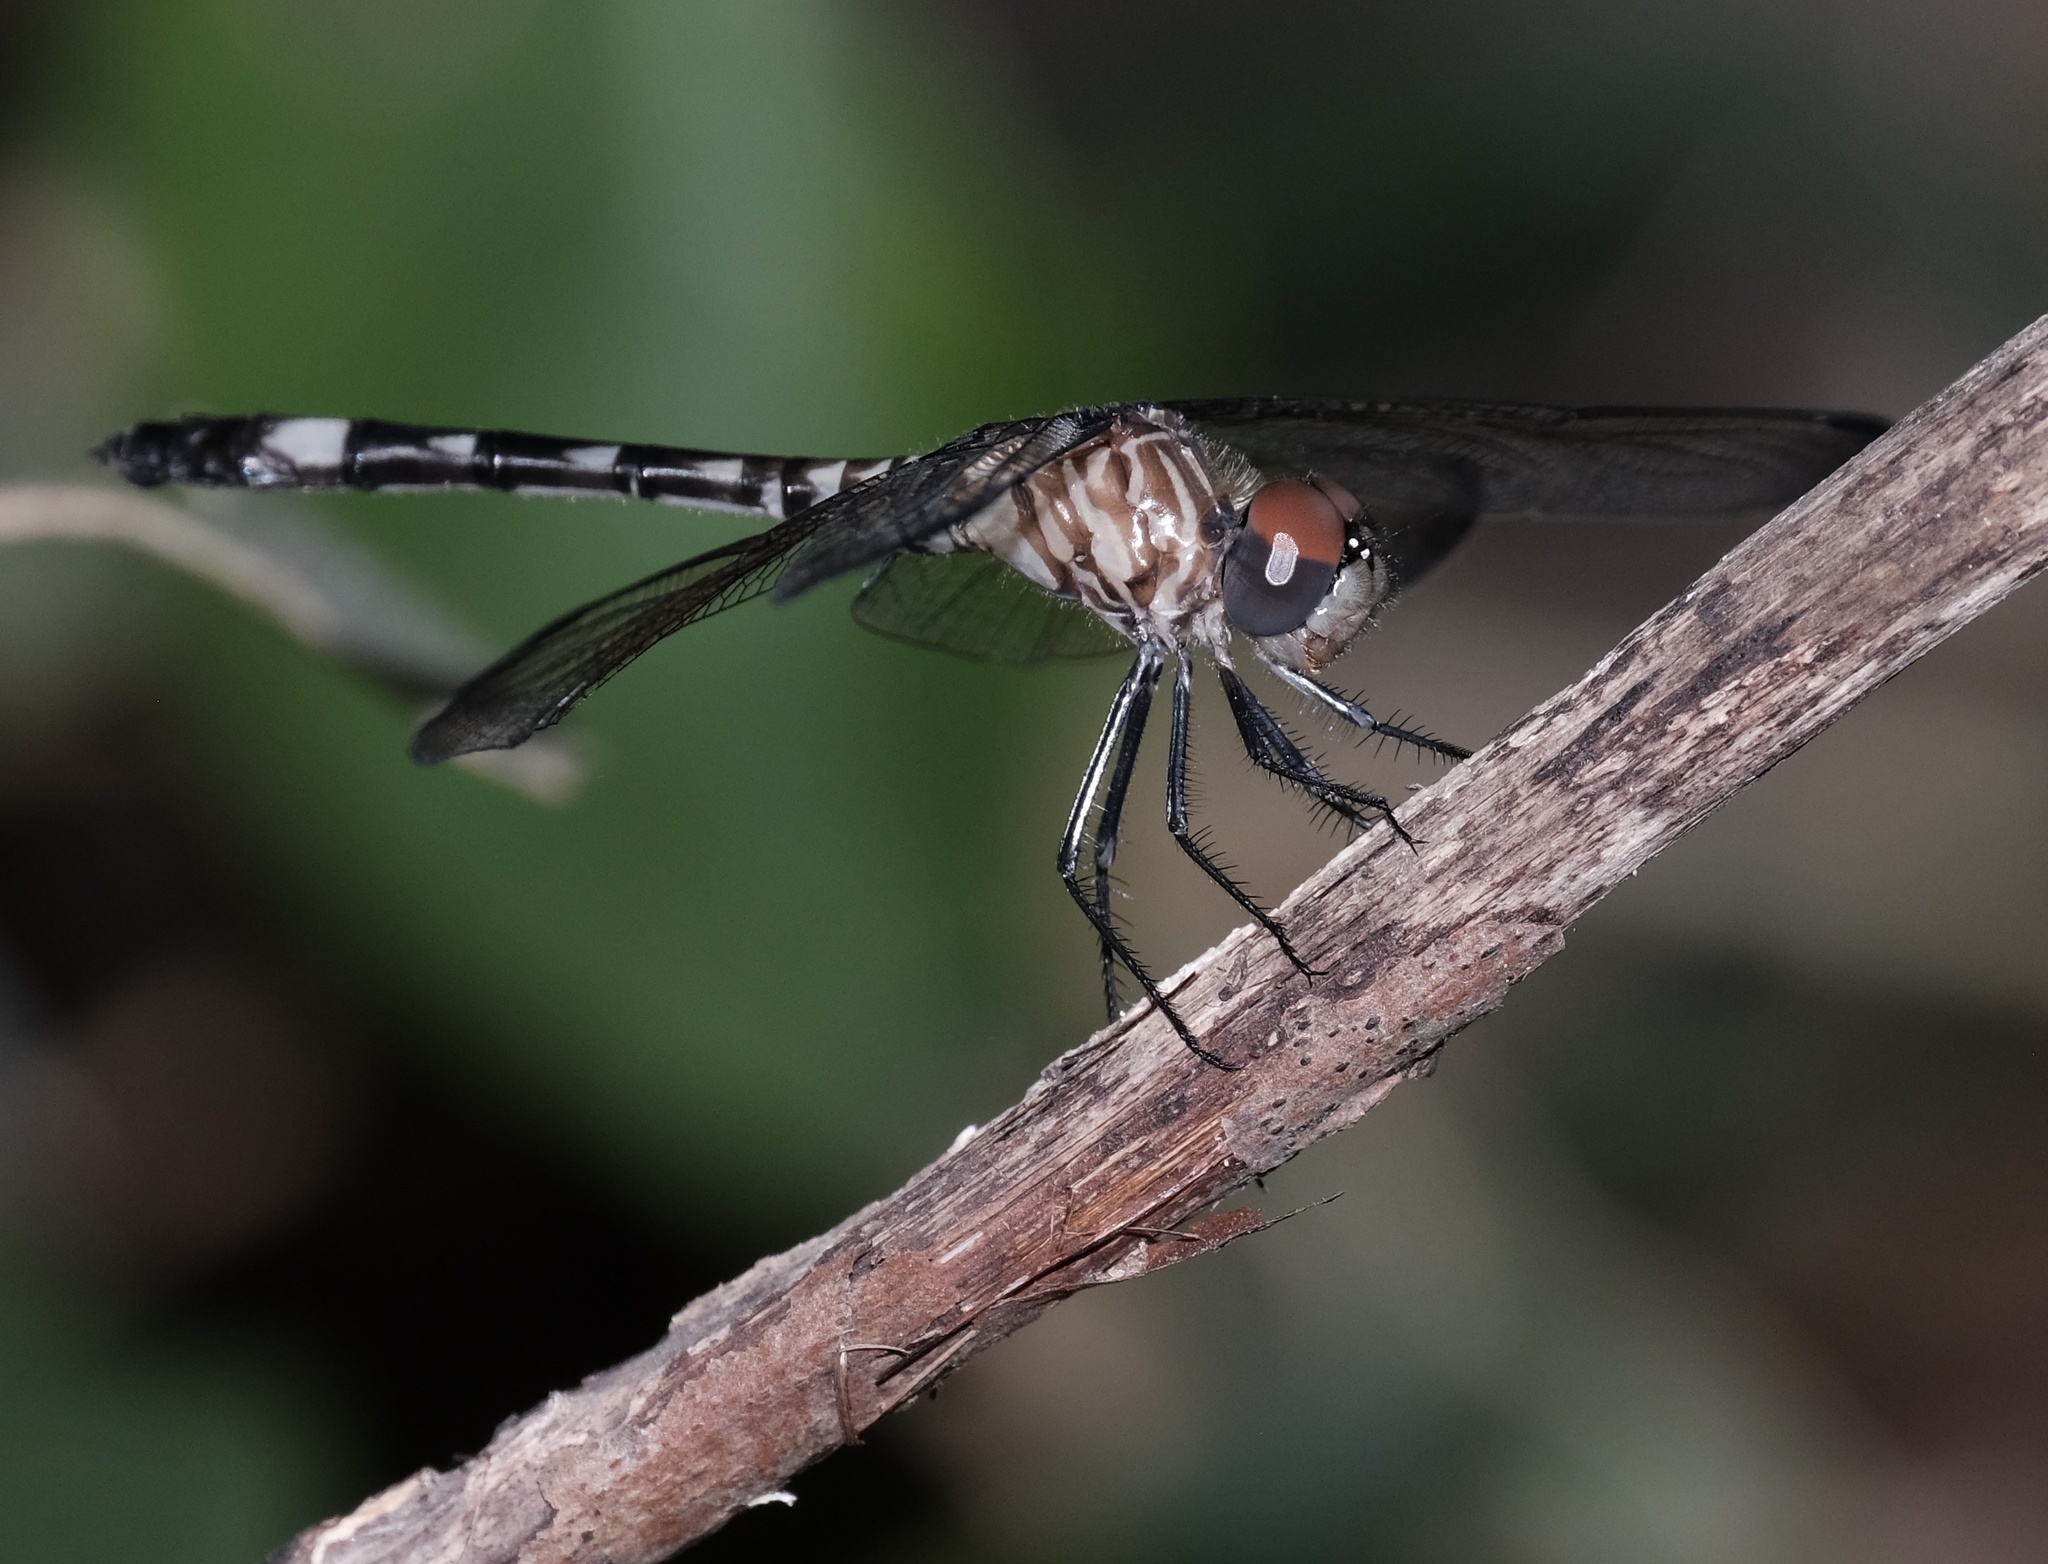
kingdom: Animalia
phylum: Arthropoda
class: Insecta
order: Odonata
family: Libellulidae
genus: Dythemis
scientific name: Dythemis velox
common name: Swift setwing
